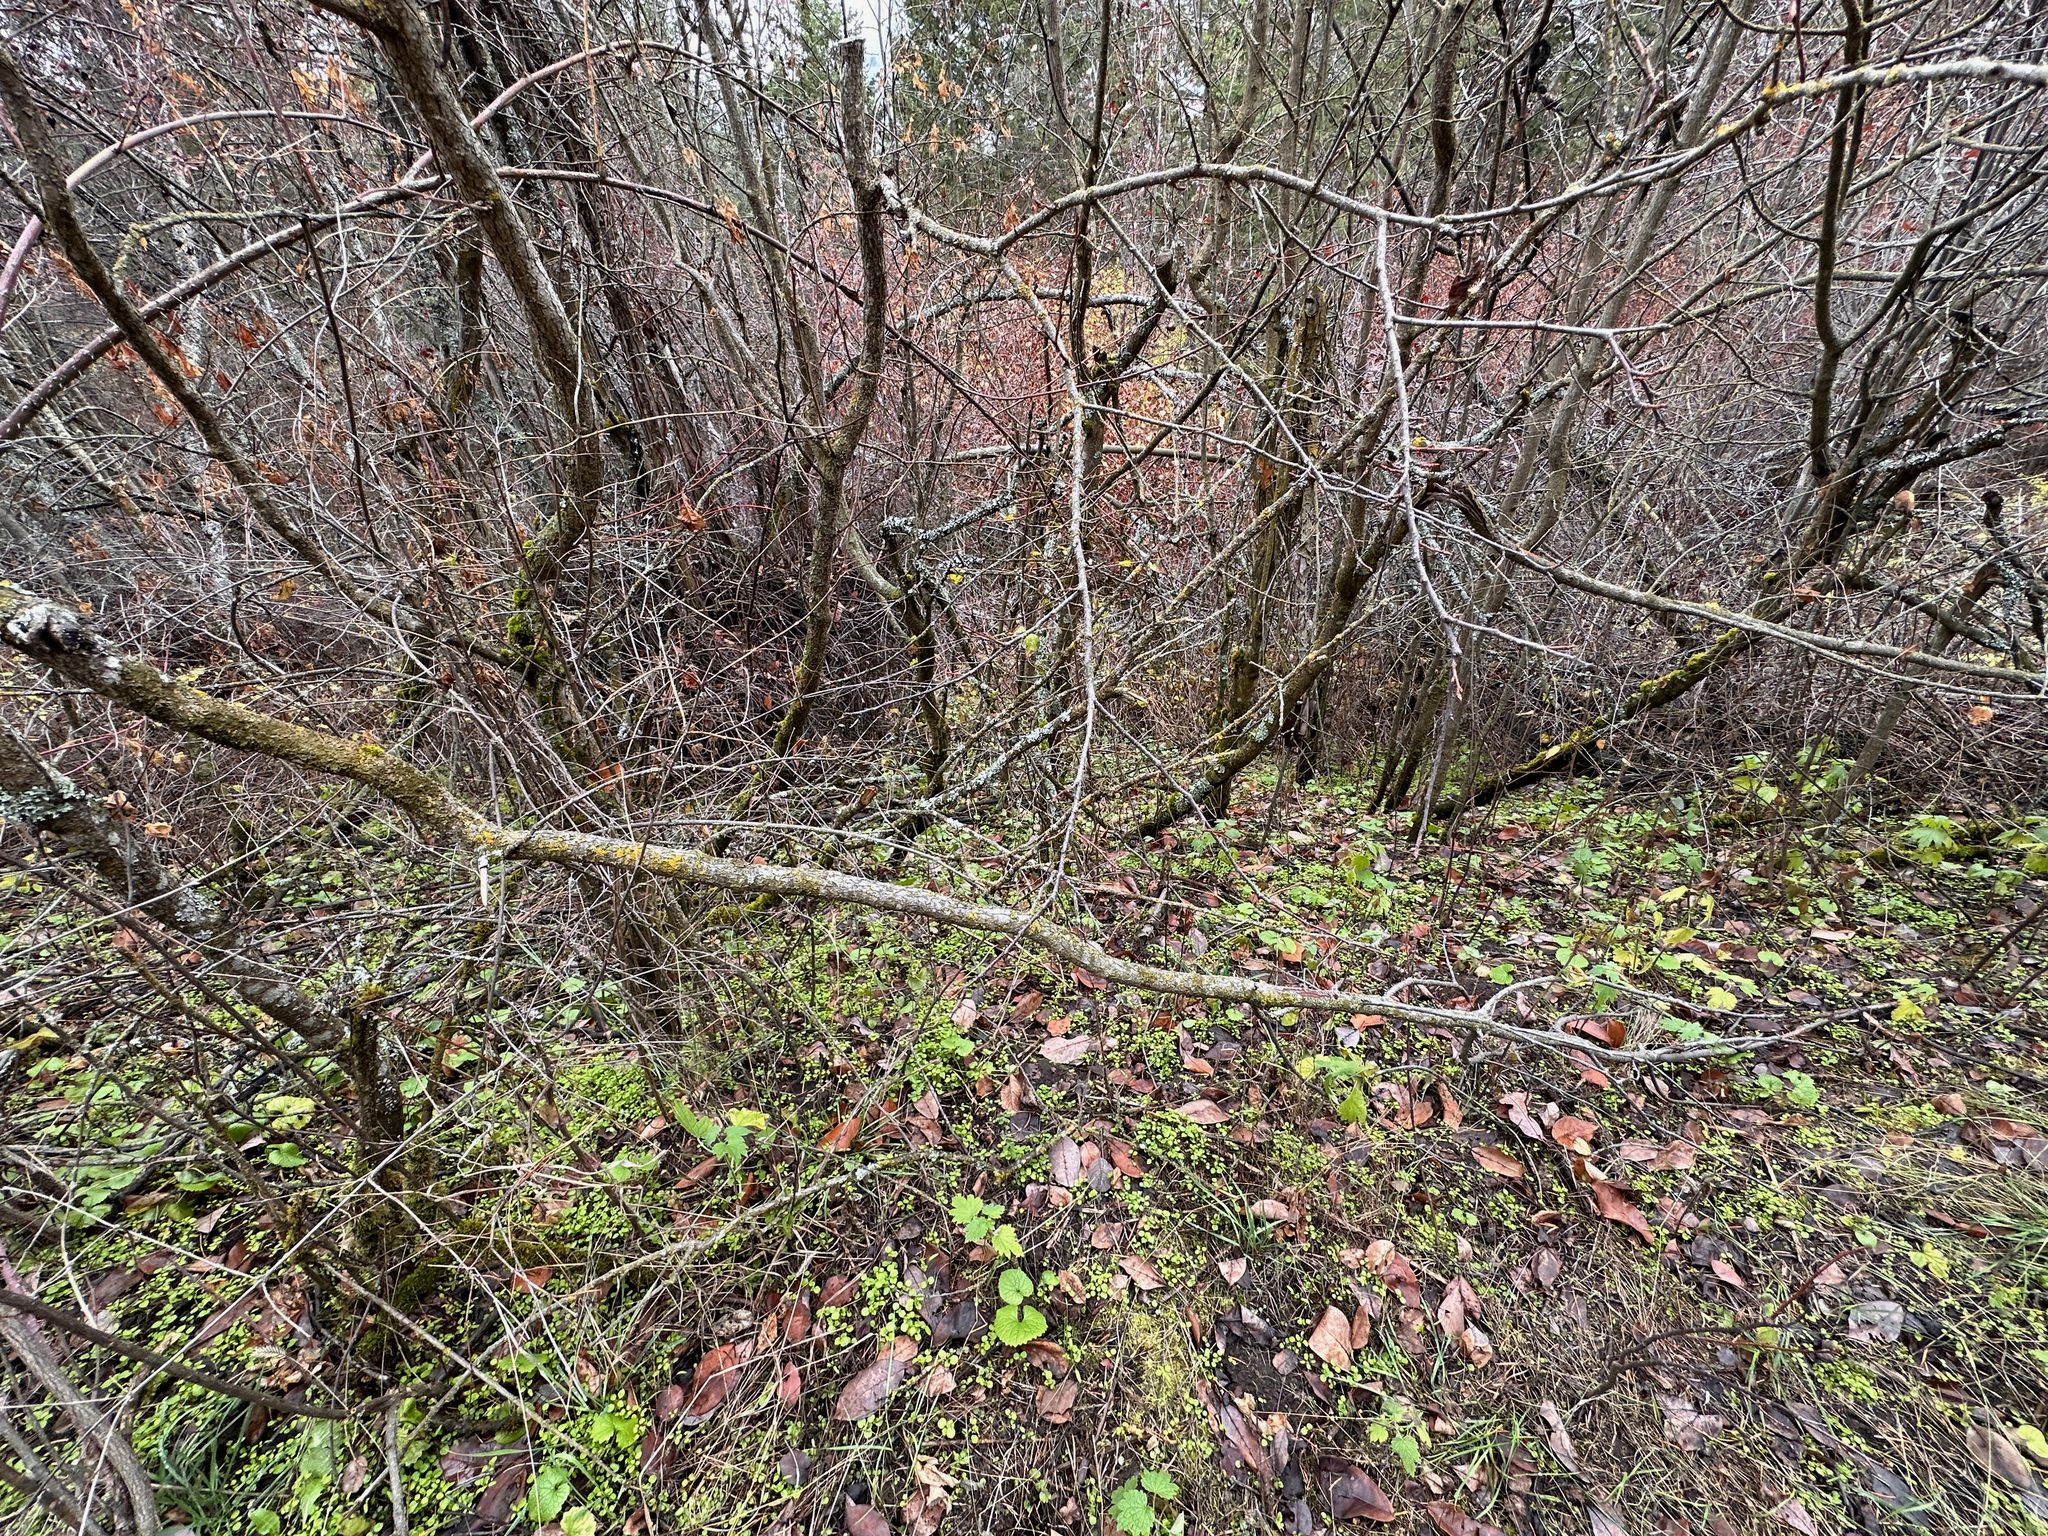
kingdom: Plantae
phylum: Tracheophyta
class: Magnoliopsida
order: Brassicales
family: Brassicaceae
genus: Alliaria
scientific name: Alliaria petiolata
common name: Garlic mustard
